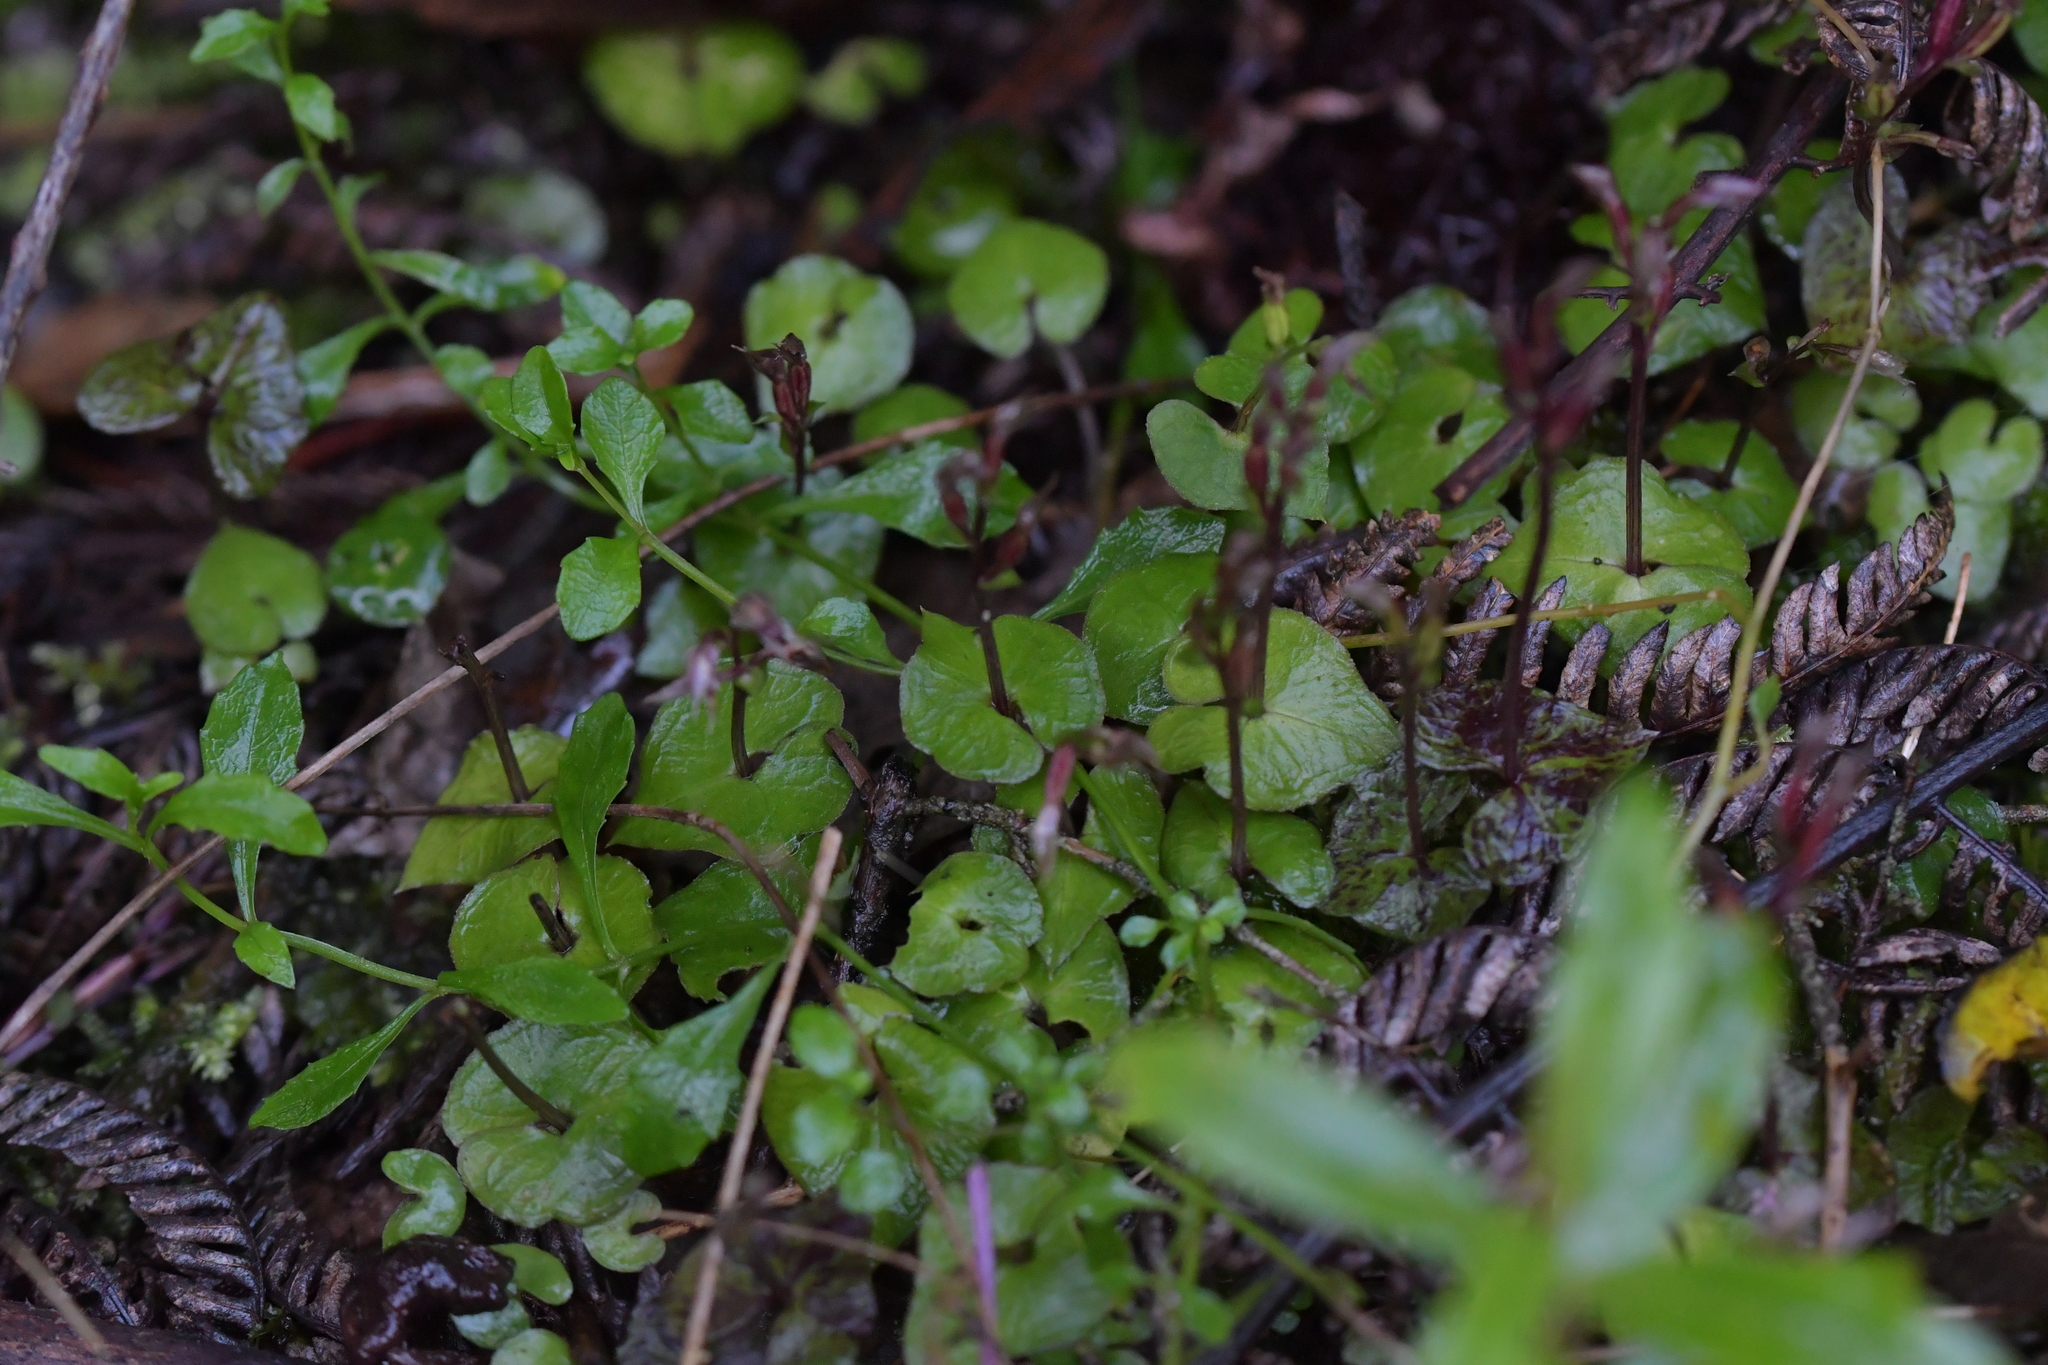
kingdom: Plantae
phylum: Tracheophyta
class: Liliopsida
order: Asparagales
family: Orchidaceae
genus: Acianthus
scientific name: Acianthus sinclairii
